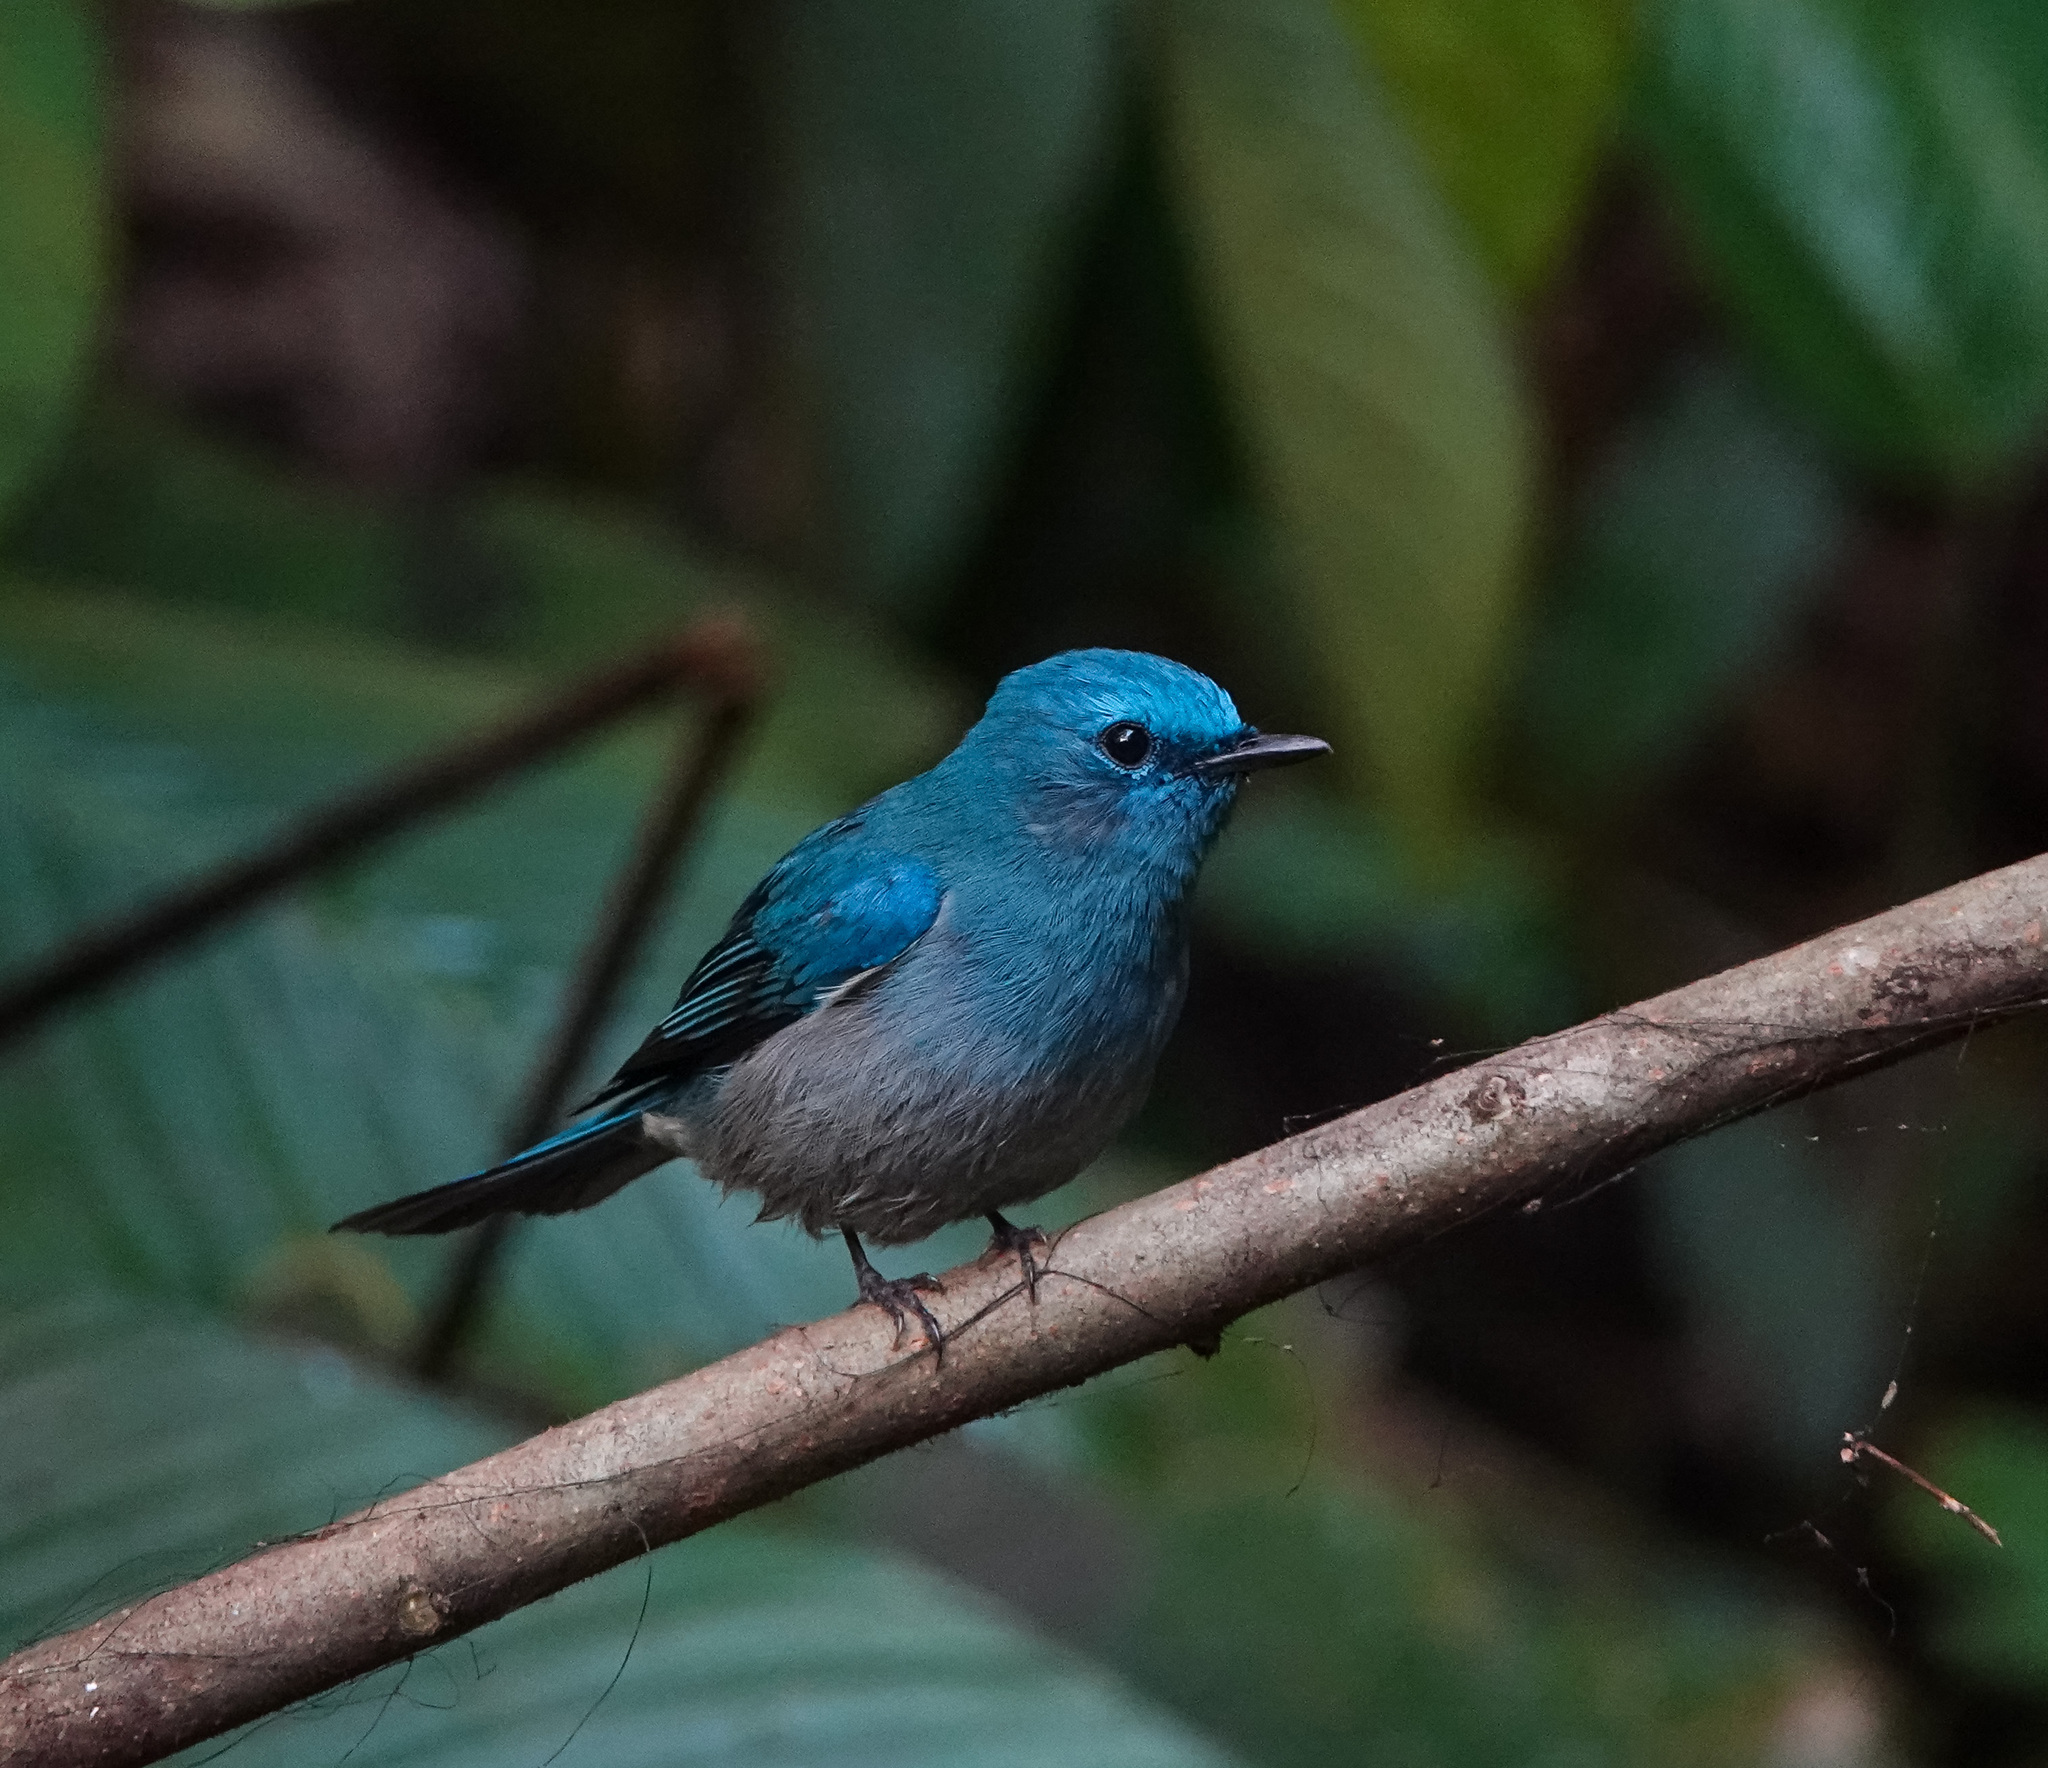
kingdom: Animalia
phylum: Chordata
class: Aves
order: Passeriformes
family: Muscicapidae
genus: Cyornis
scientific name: Cyornis unicolor
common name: Pale blue flycatcher
